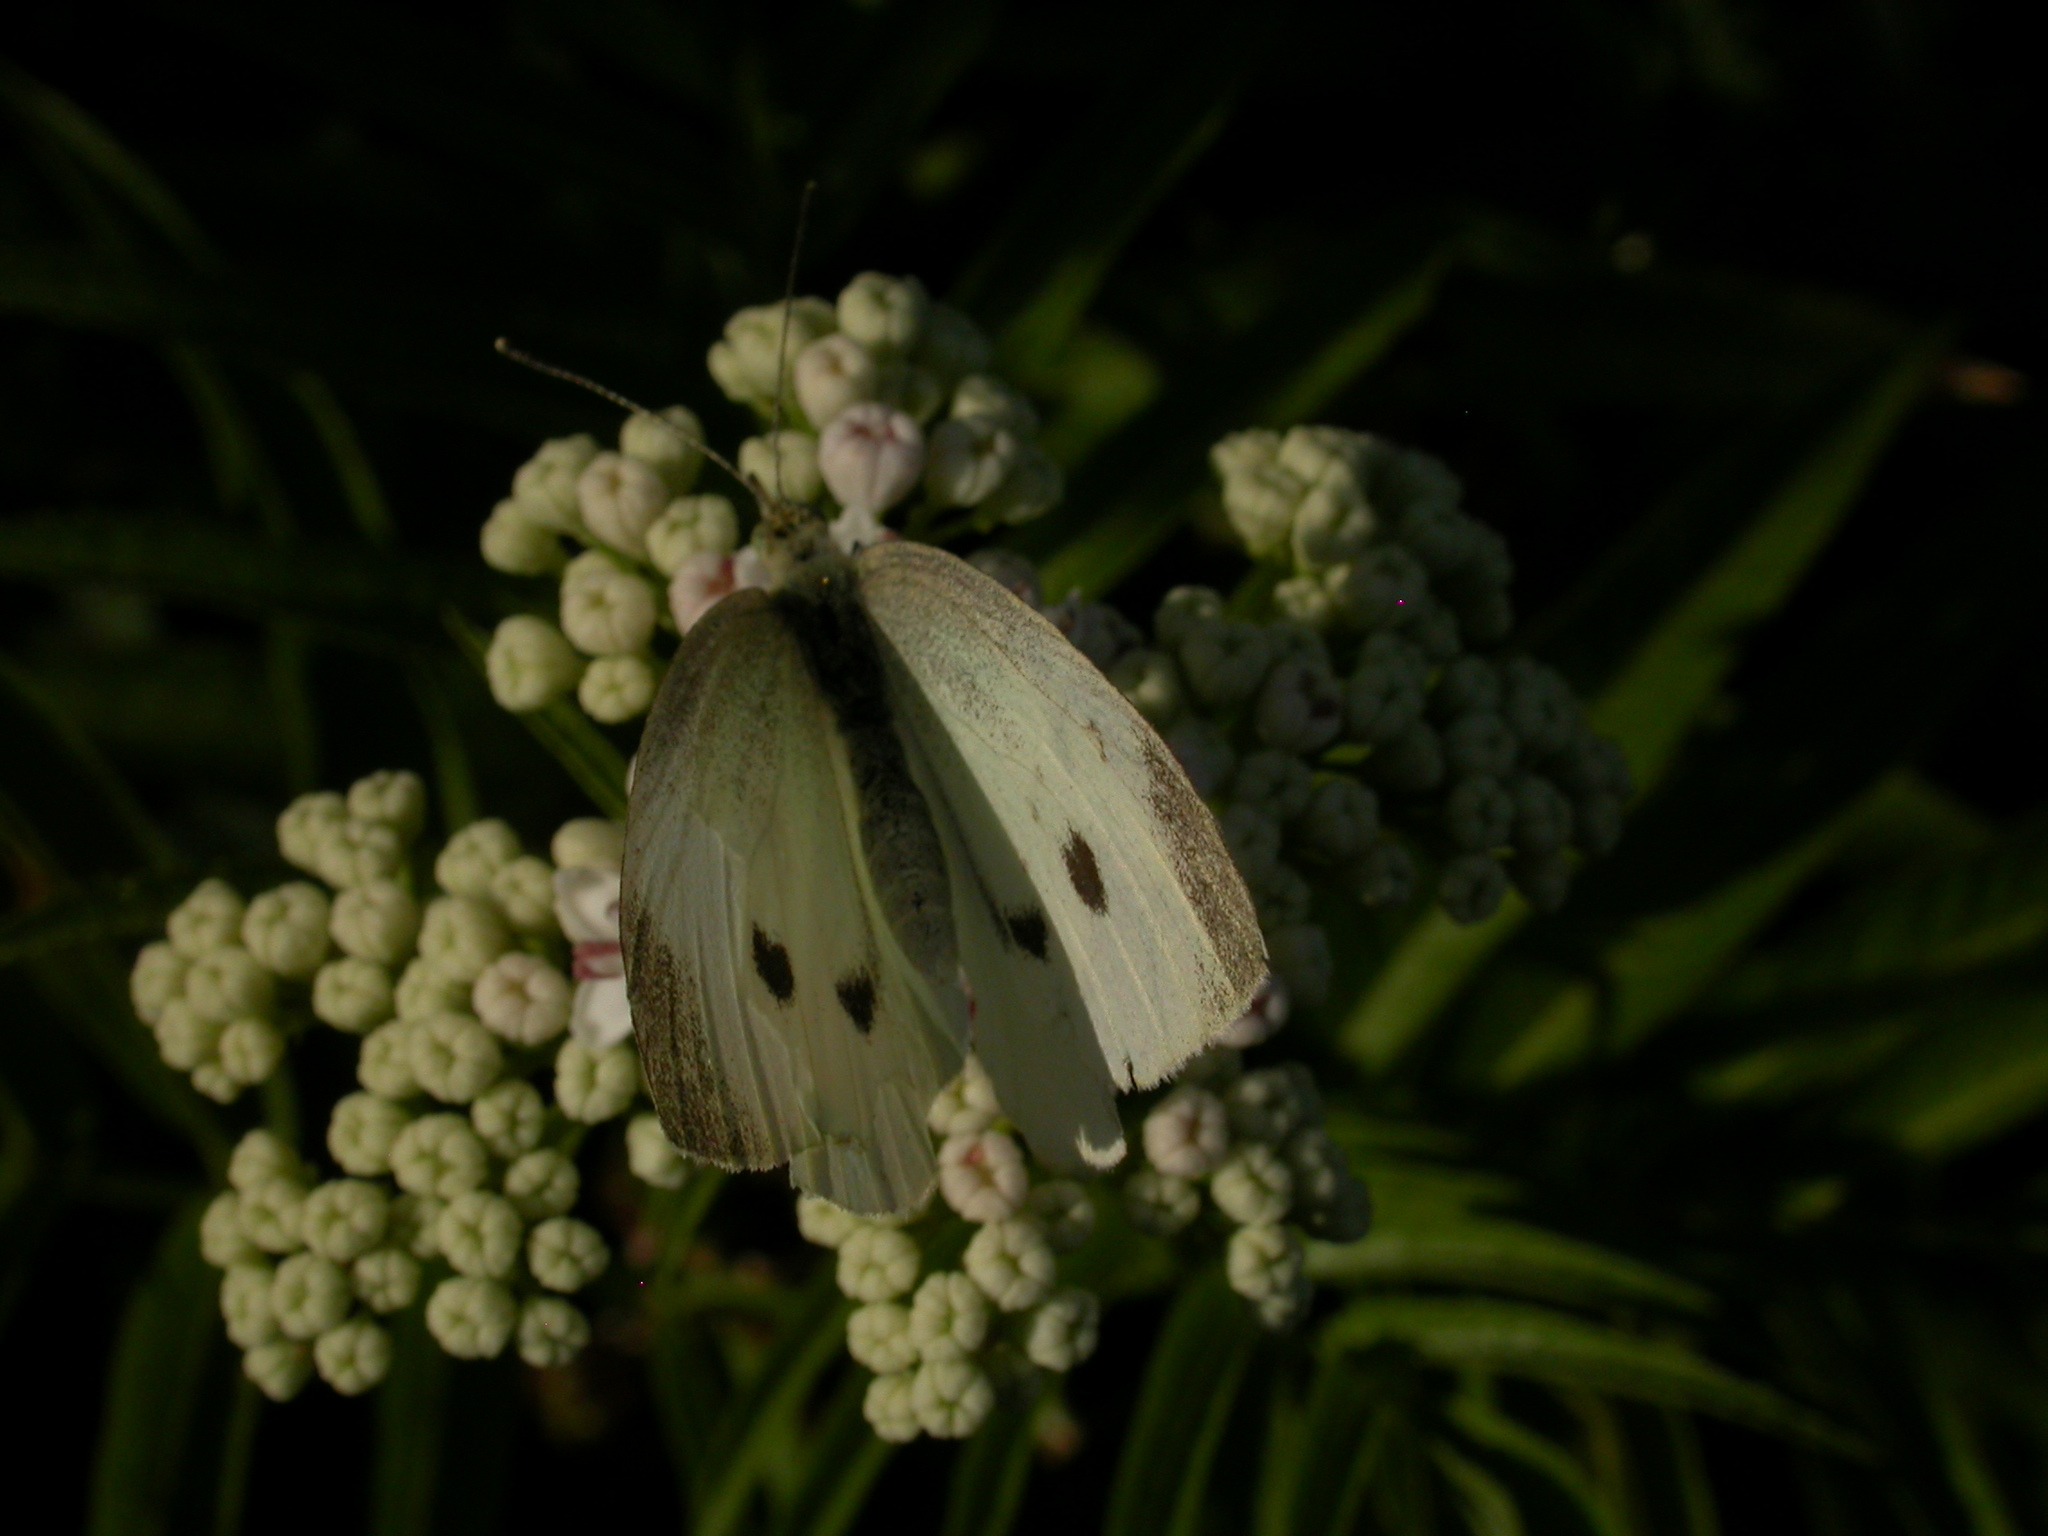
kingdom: Animalia
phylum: Arthropoda
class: Insecta
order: Lepidoptera
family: Pieridae
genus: Pieris
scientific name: Pieris rapae
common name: Small white
